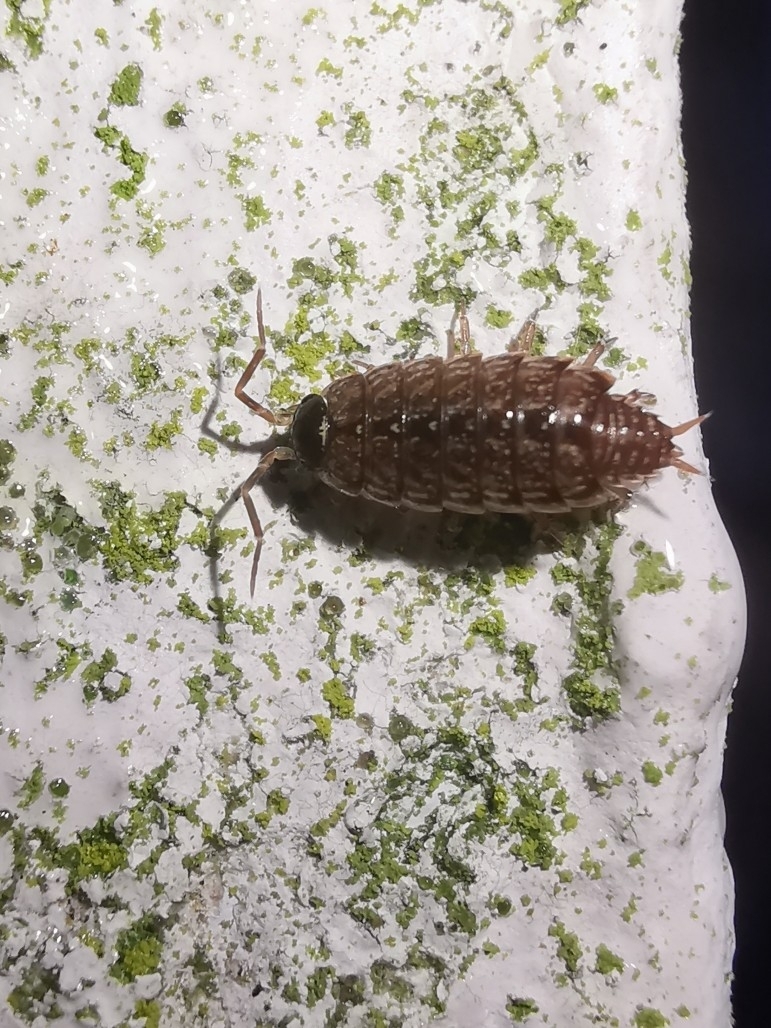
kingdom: Animalia
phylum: Arthropoda
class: Malacostraca
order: Isopoda
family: Philosciidae
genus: Philoscia
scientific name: Philoscia muscorum
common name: Common striped woodlouse
